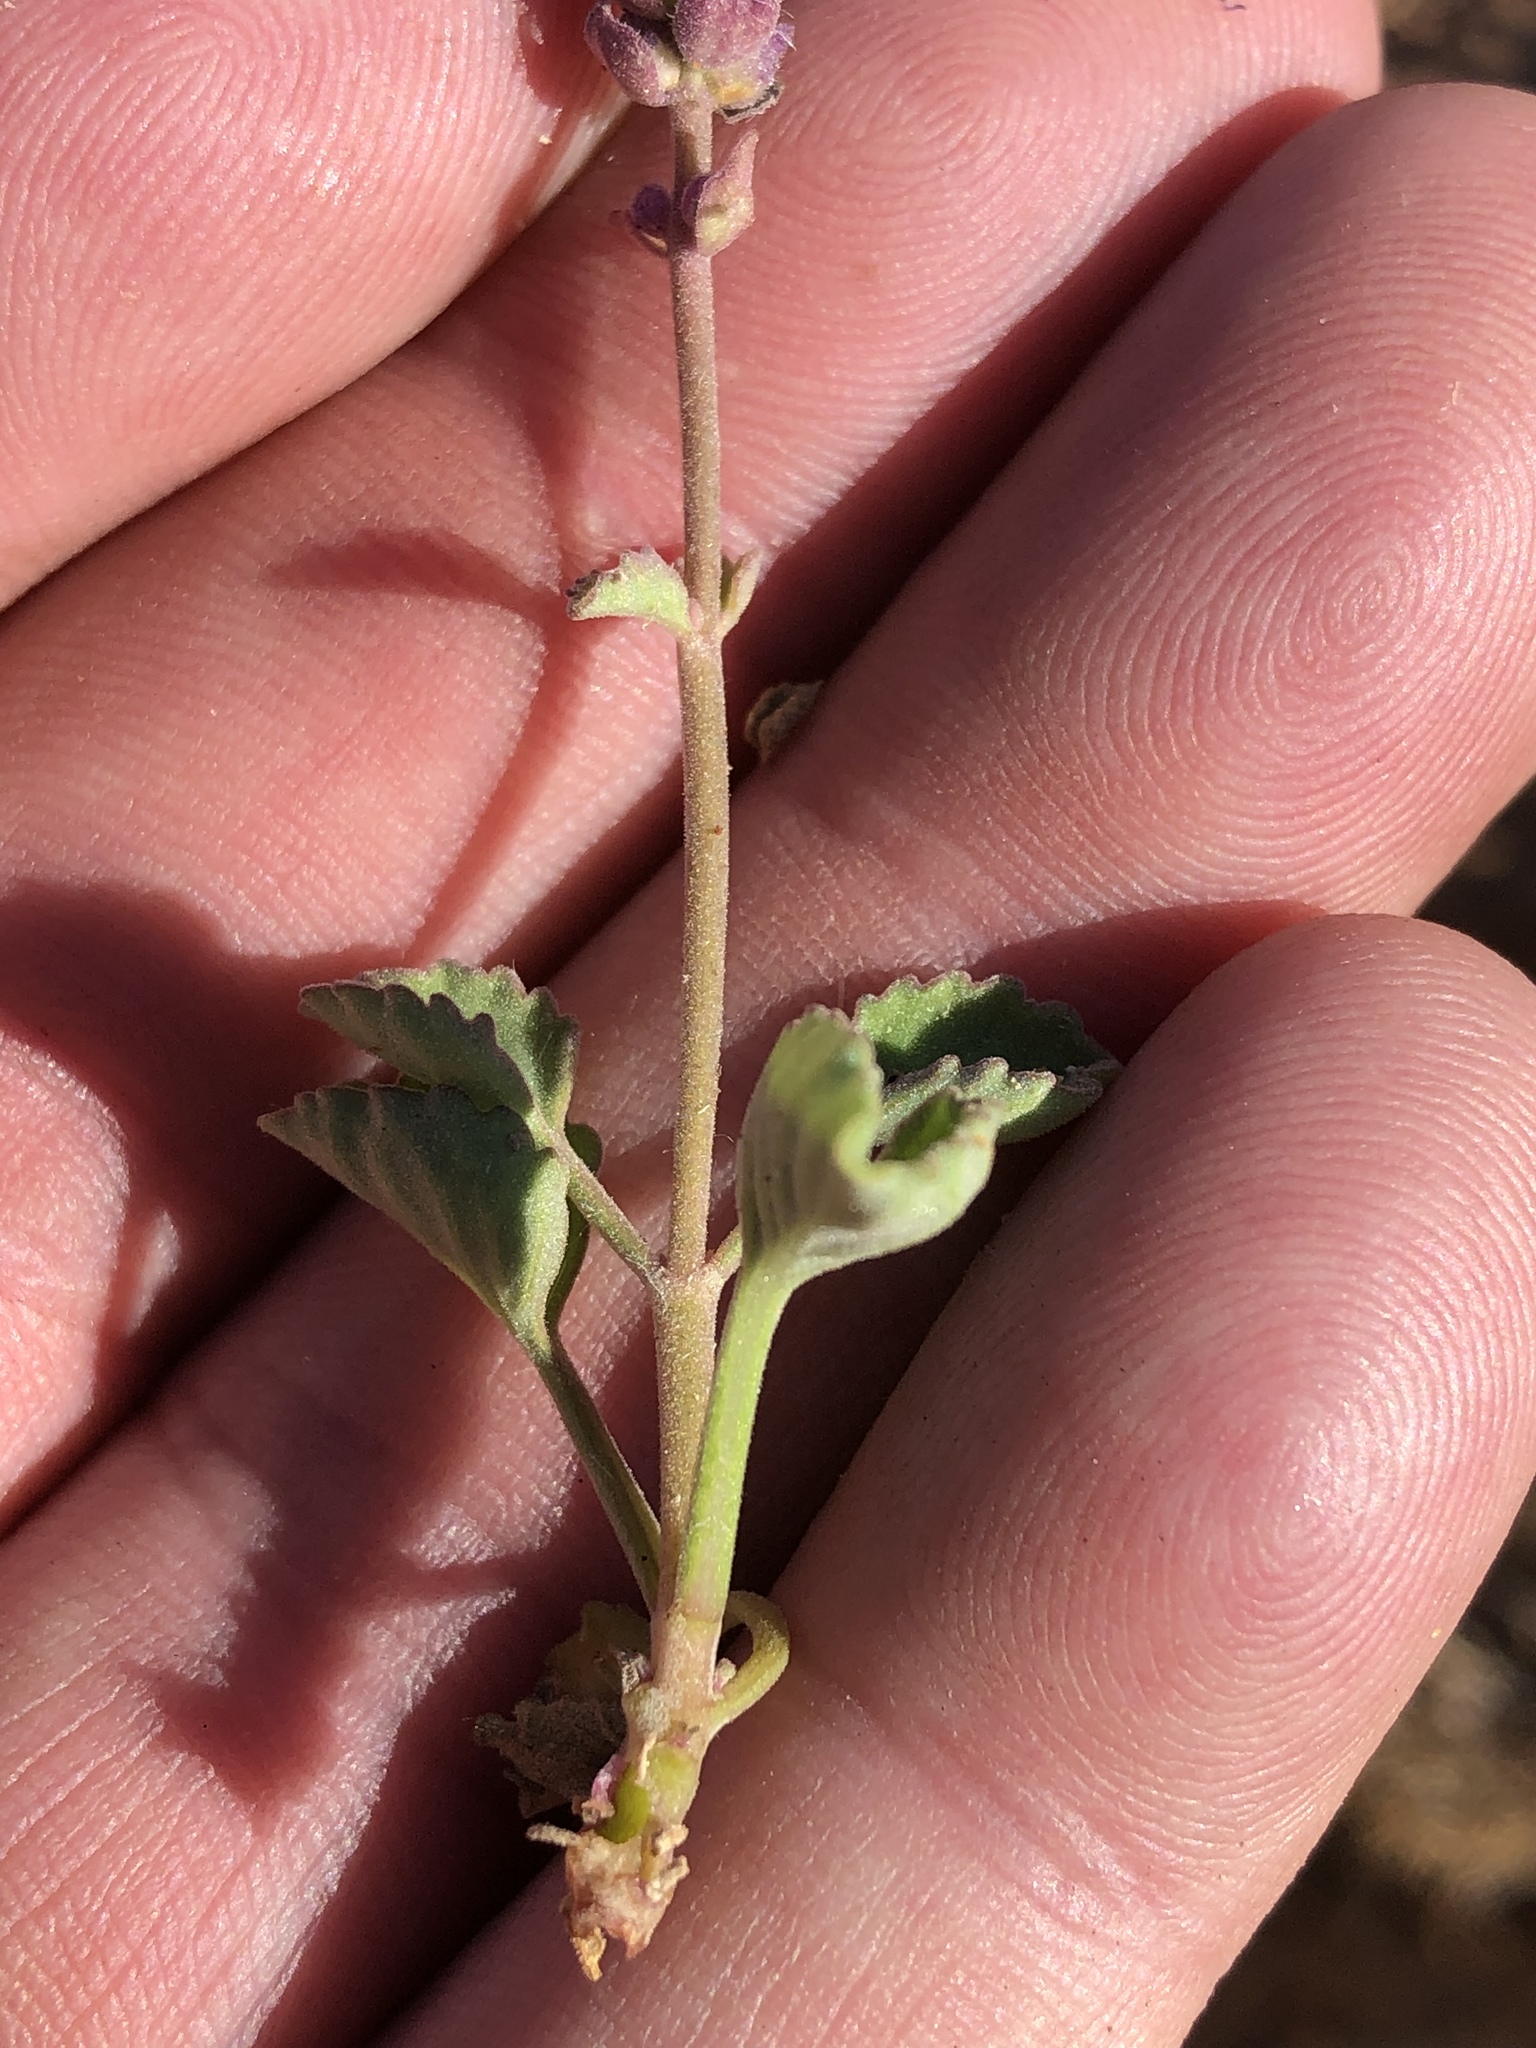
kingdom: Plantae
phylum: Tracheophyta
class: Magnoliopsida
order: Lamiales
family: Lamiaceae
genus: Aeollanthus
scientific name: Aeollanthus buchnerianus
